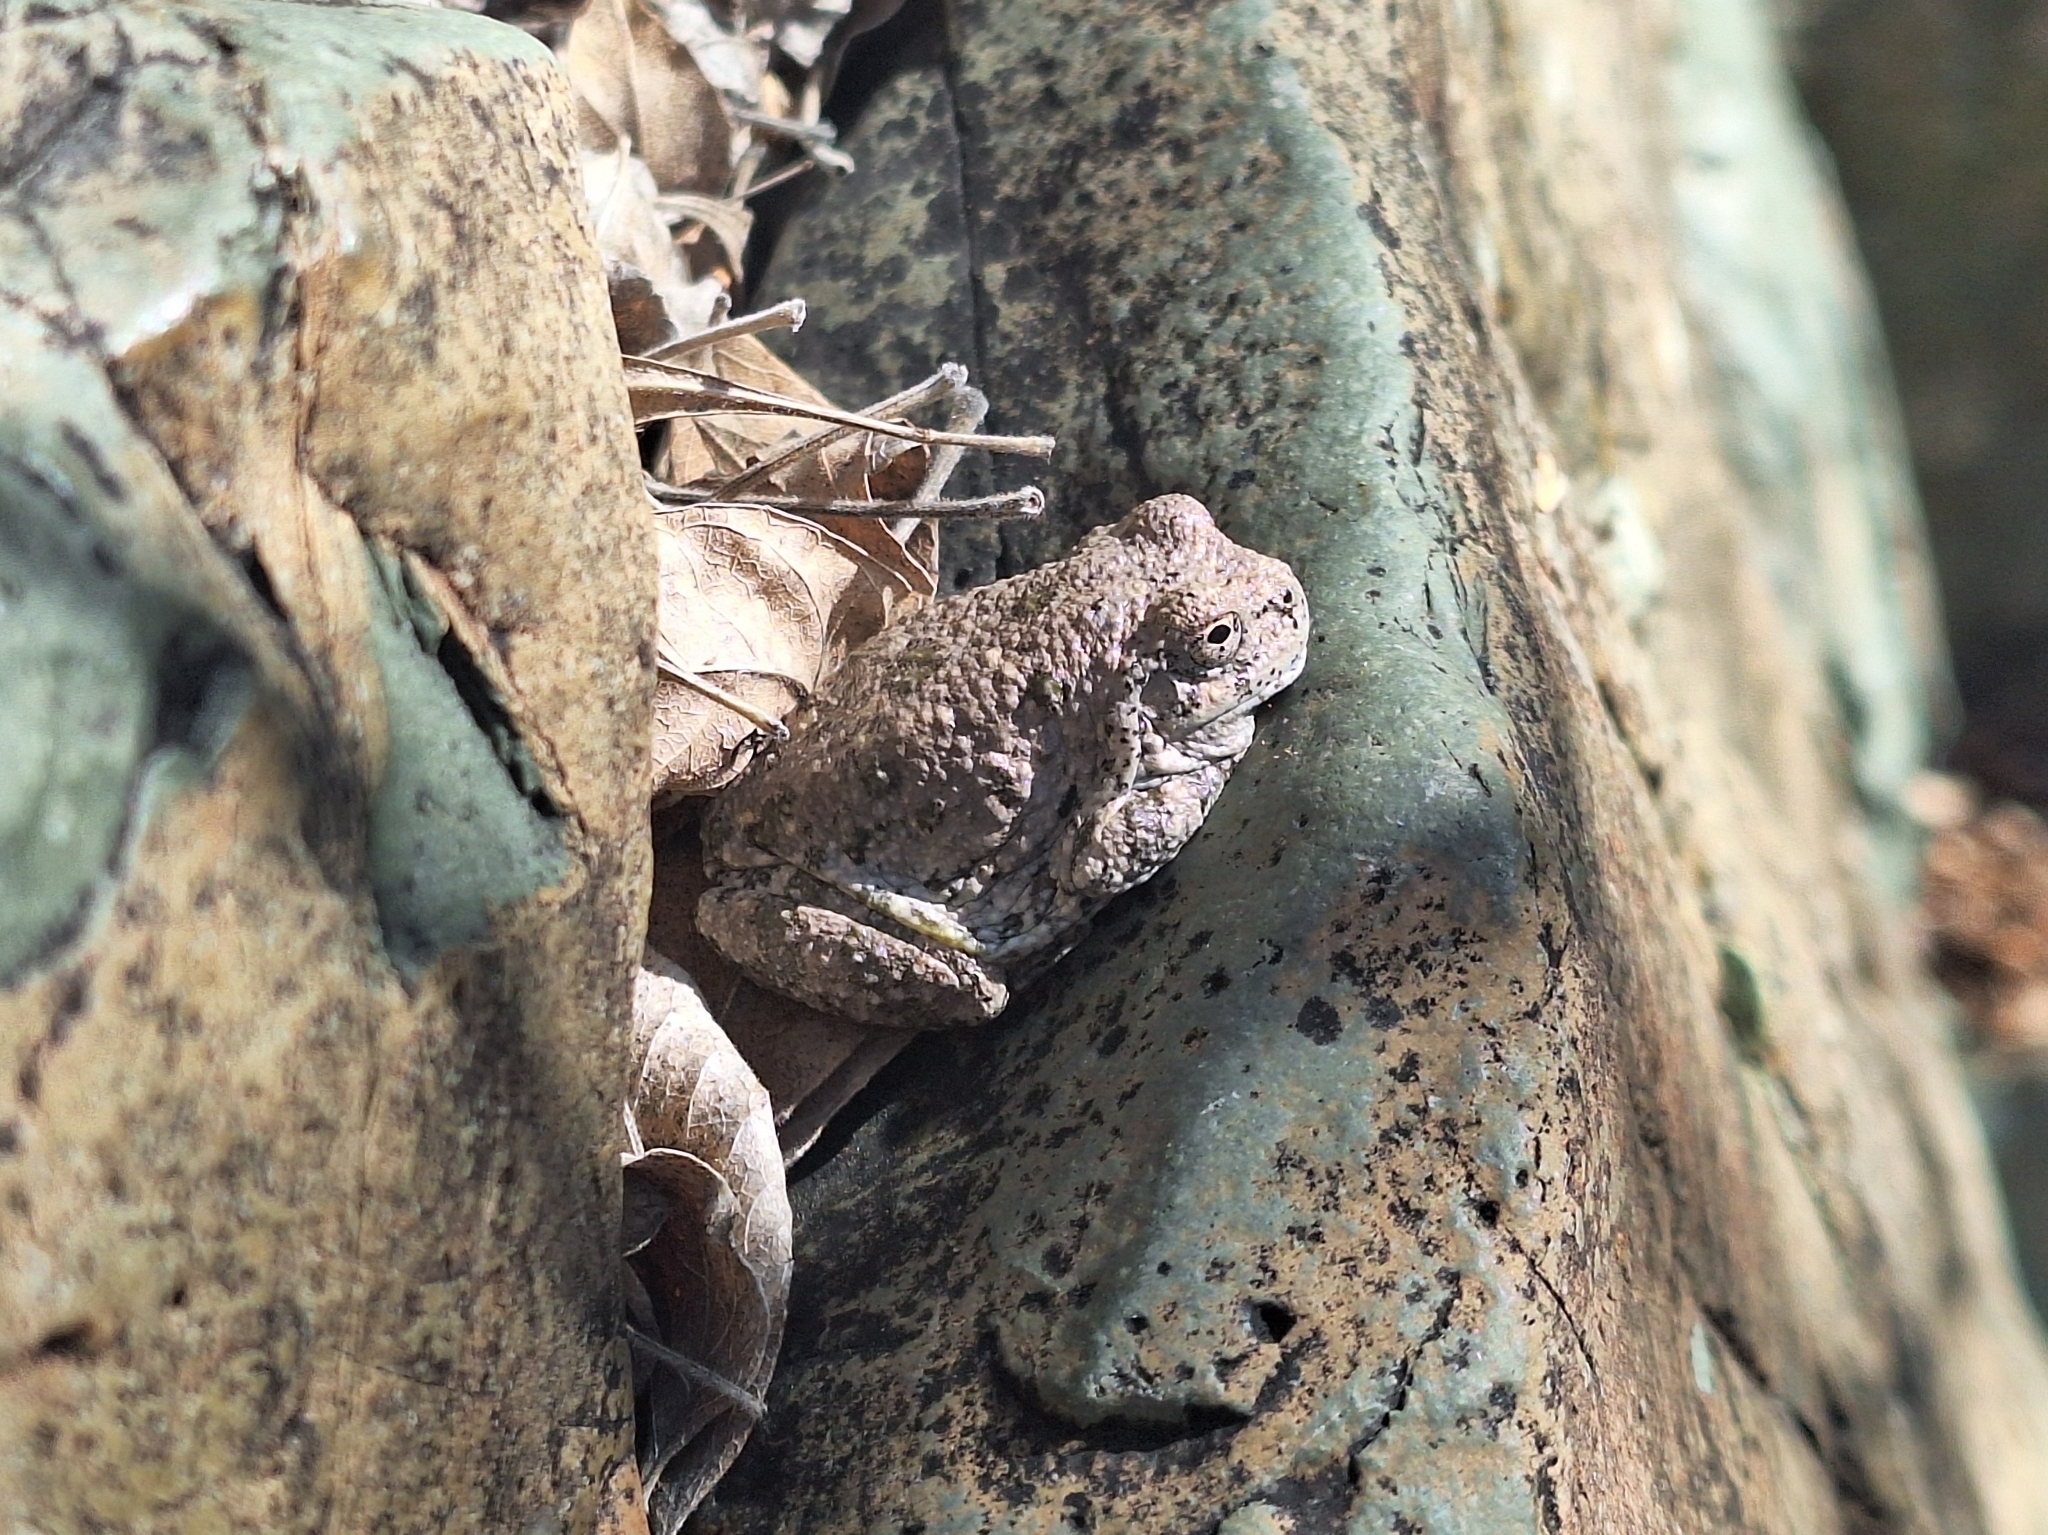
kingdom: Animalia
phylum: Chordata
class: Amphibia
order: Anura
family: Hylidae
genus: Dryophytes
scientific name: Dryophytes arenicolor
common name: Canyon treefrog
